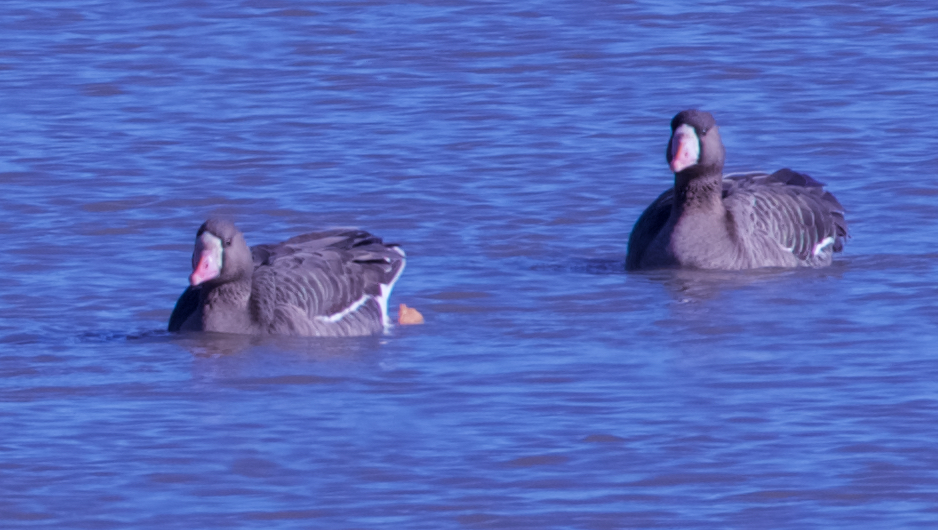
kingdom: Animalia
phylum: Chordata
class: Aves
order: Anseriformes
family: Anatidae
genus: Anser
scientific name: Anser albifrons
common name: Greater white-fronted goose
